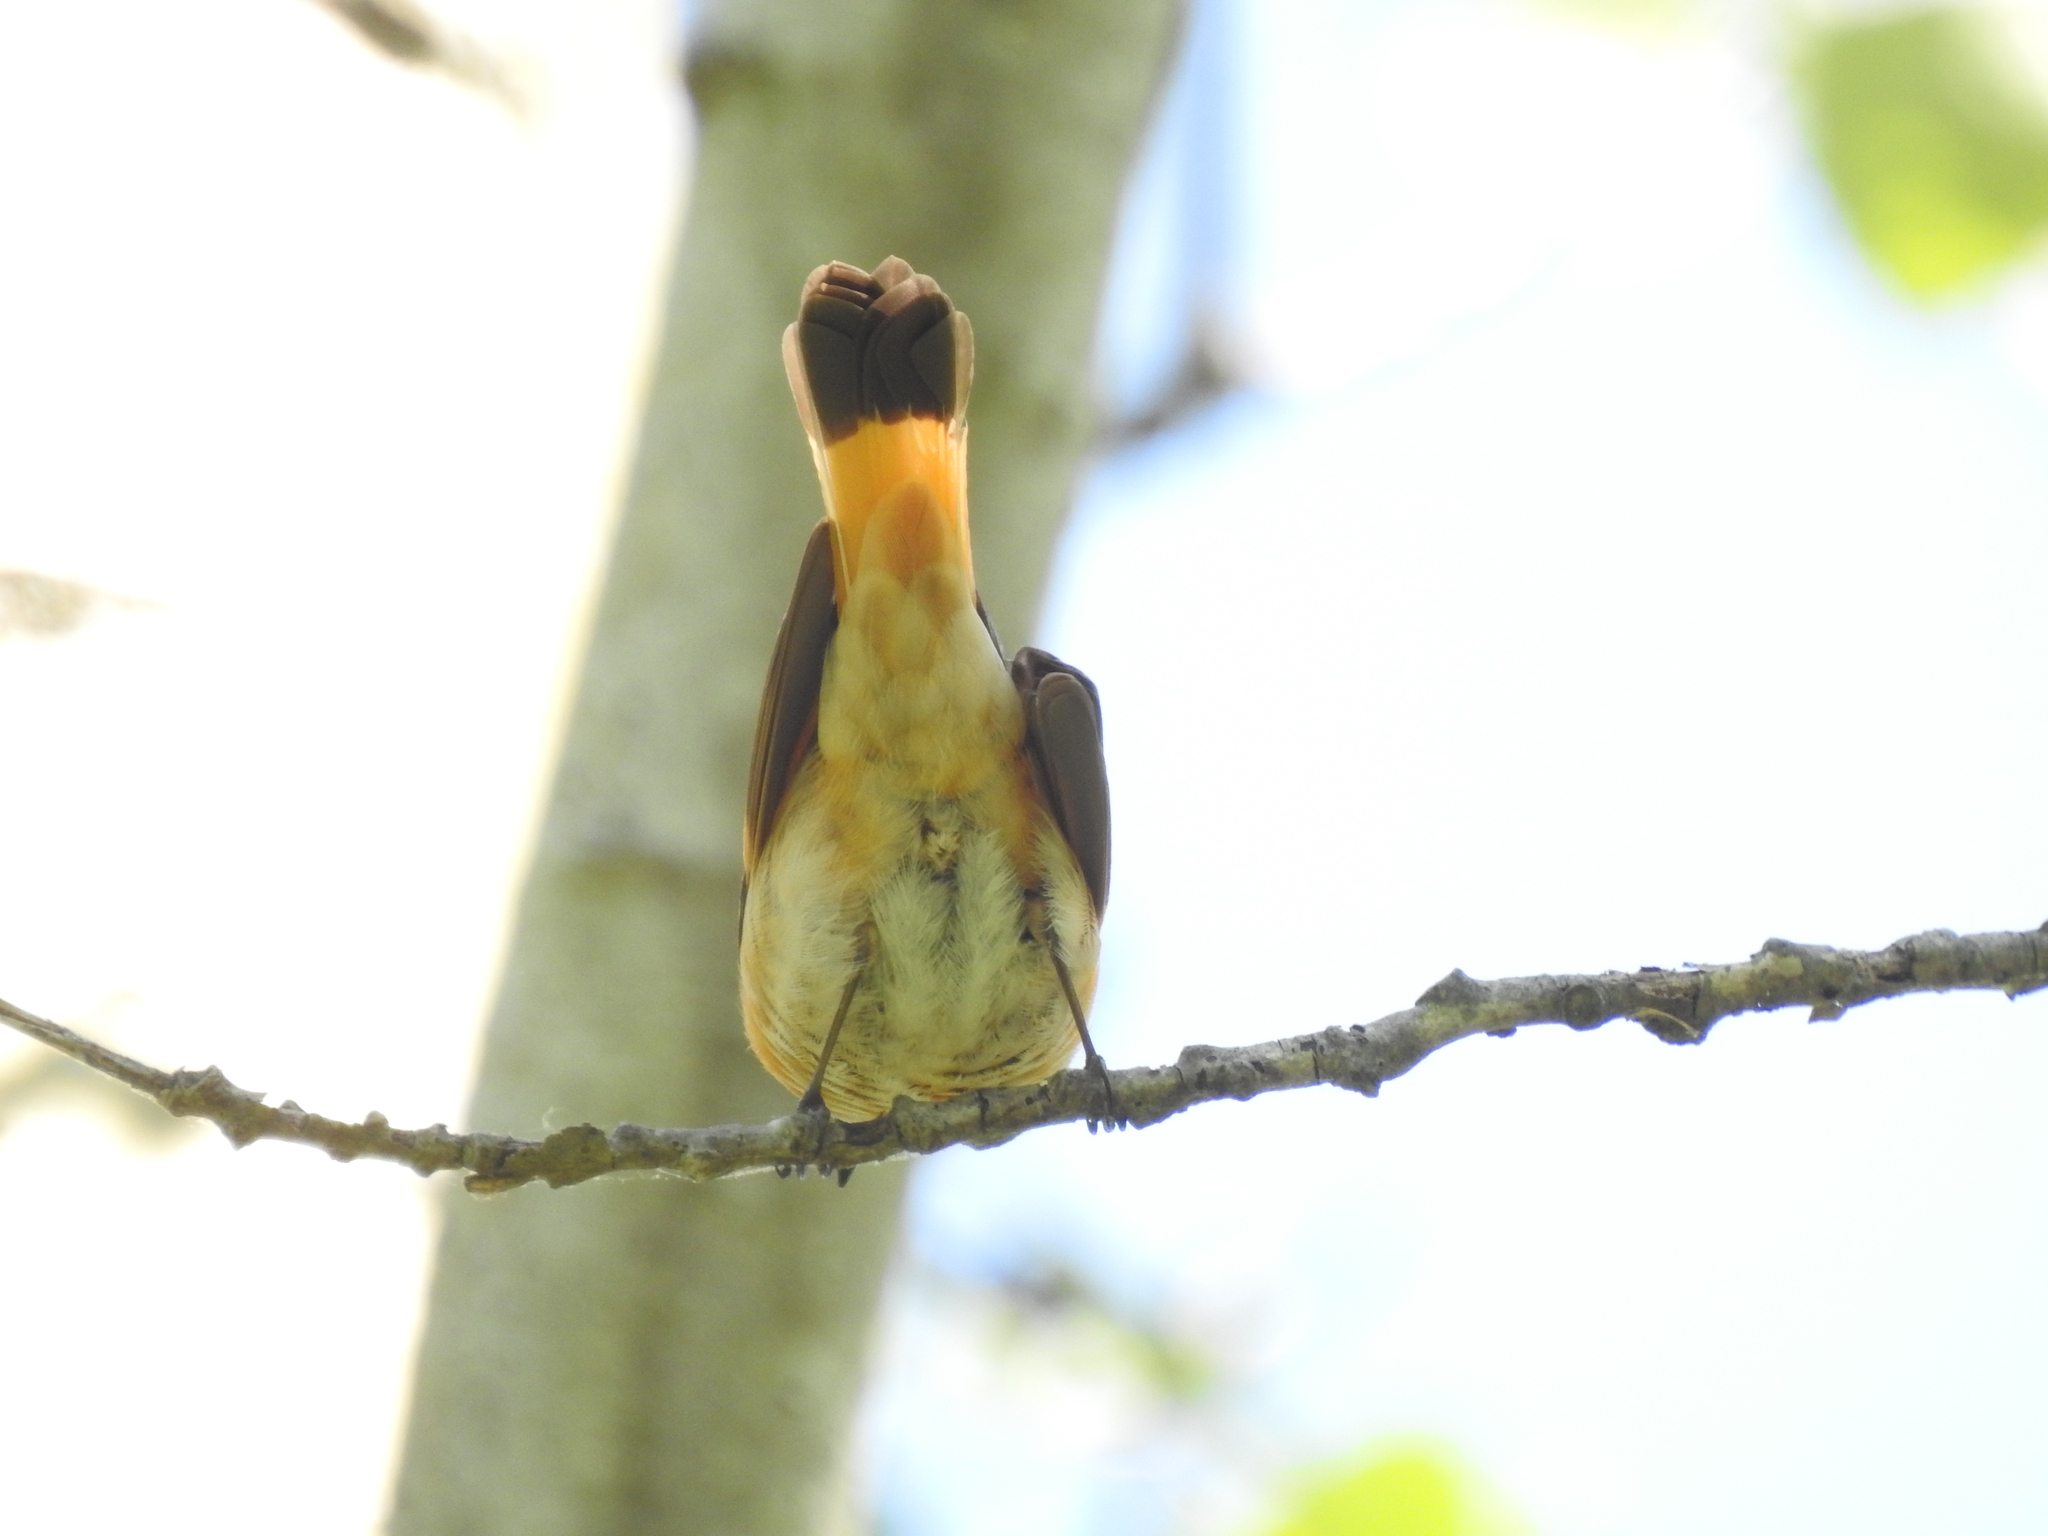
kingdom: Animalia
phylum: Chordata
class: Aves
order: Passeriformes
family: Parulidae
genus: Setophaga
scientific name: Setophaga ruticilla
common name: American redstart
